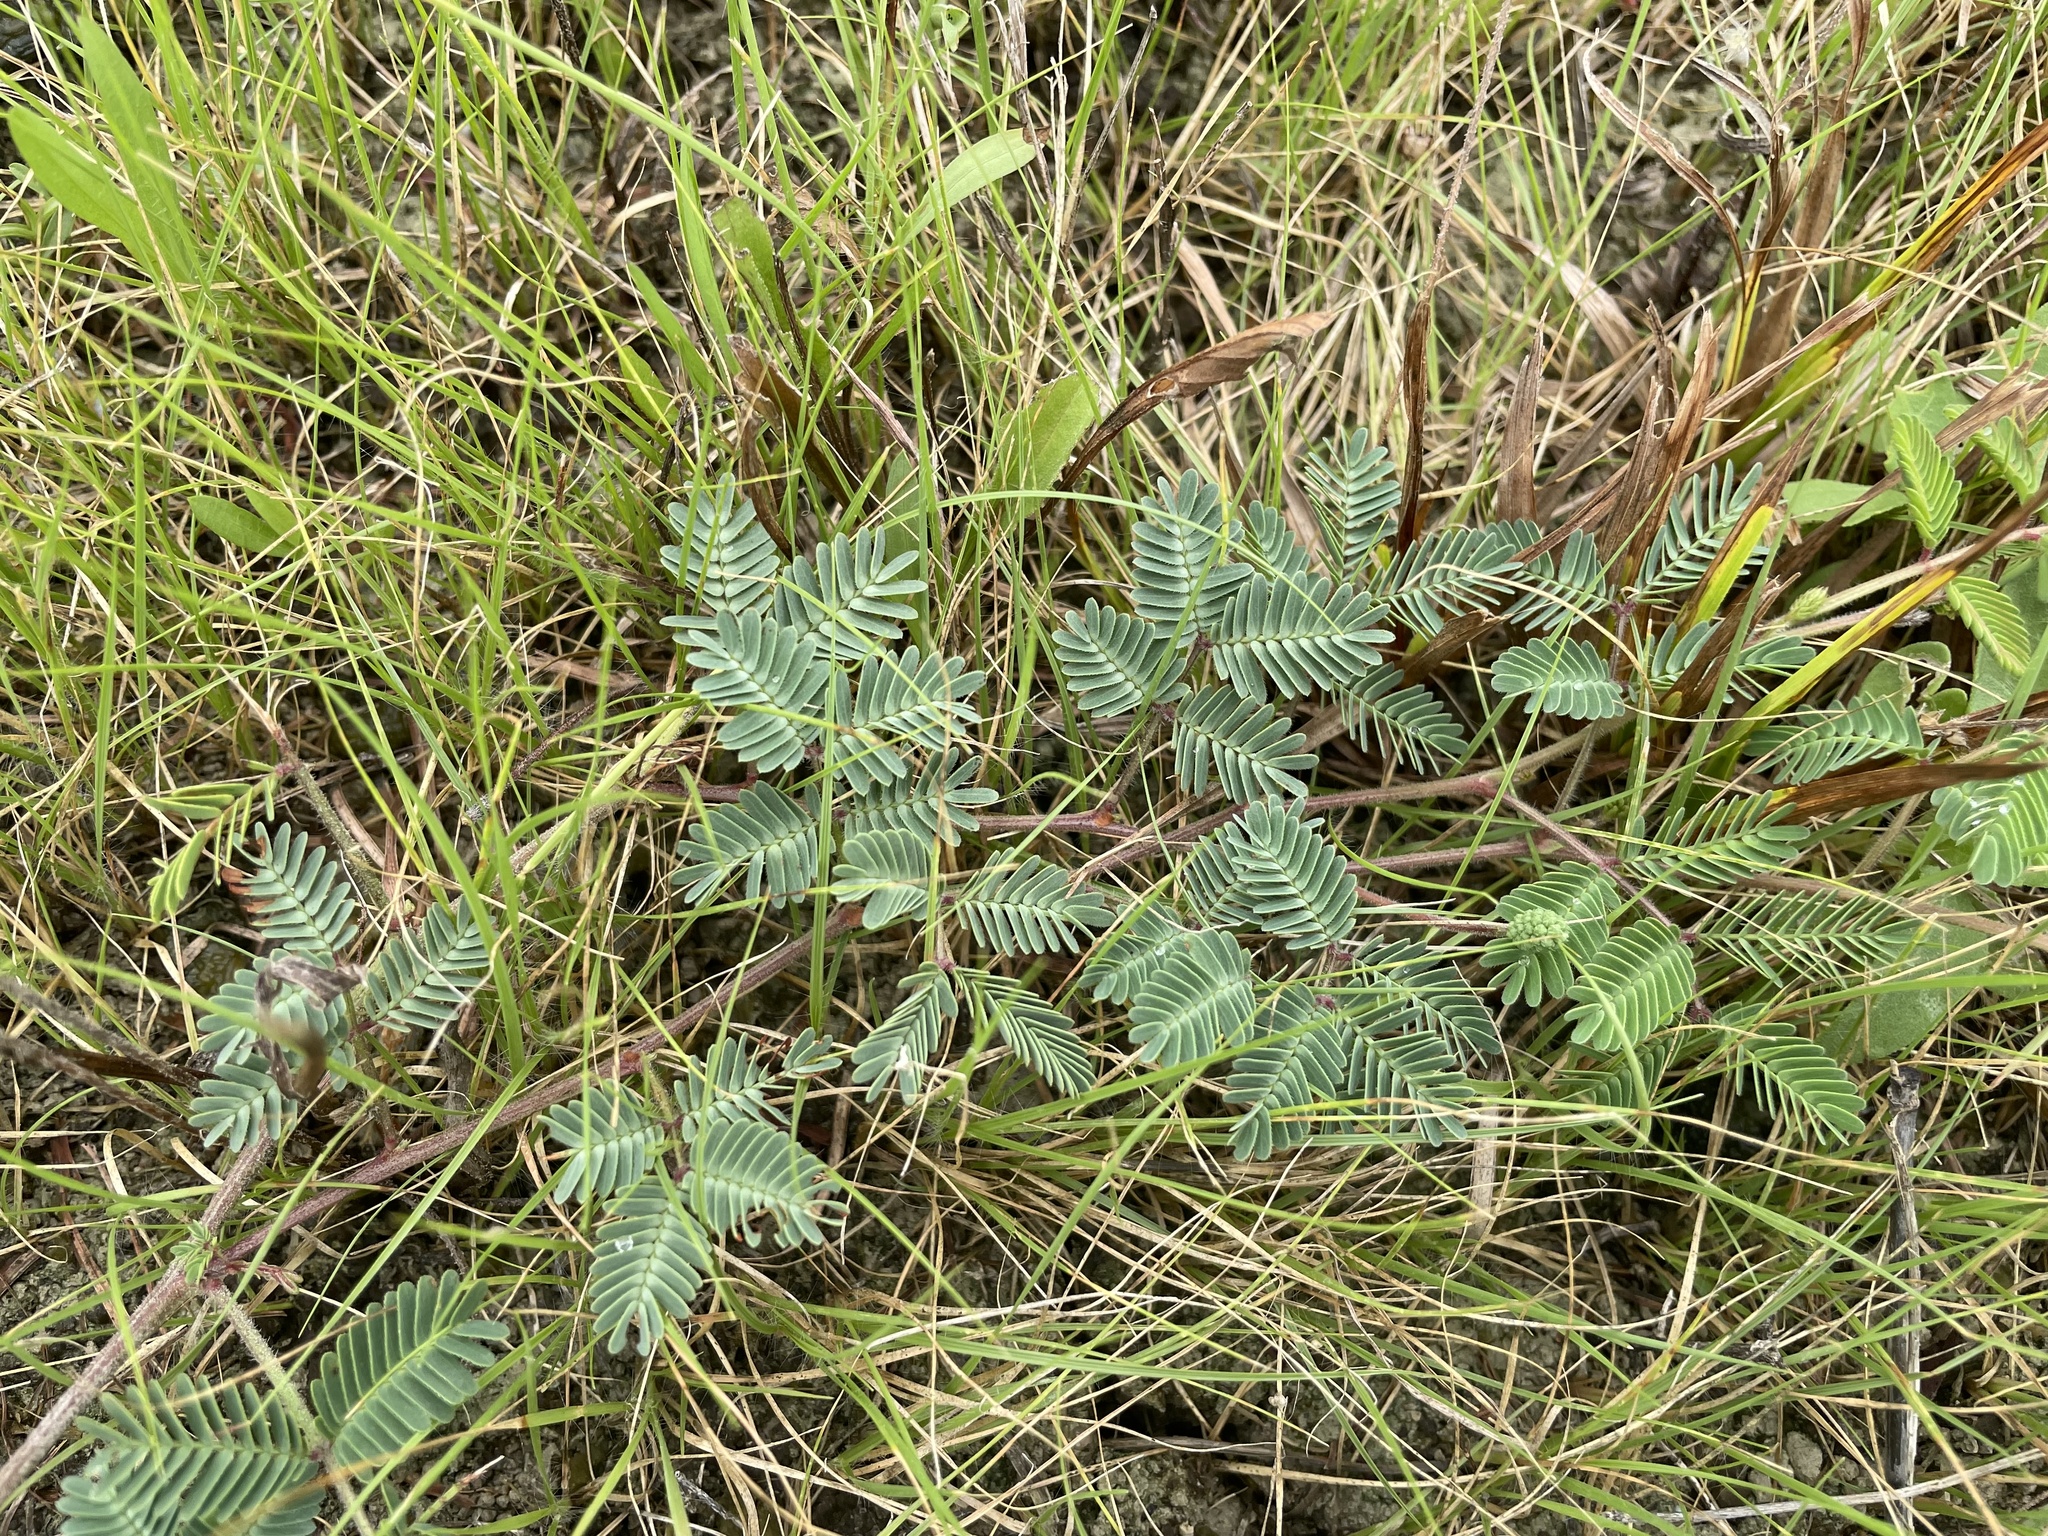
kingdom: Plantae
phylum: Tracheophyta
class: Magnoliopsida
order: Fabales
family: Fabaceae
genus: Neptunia
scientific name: Neptunia lutea
